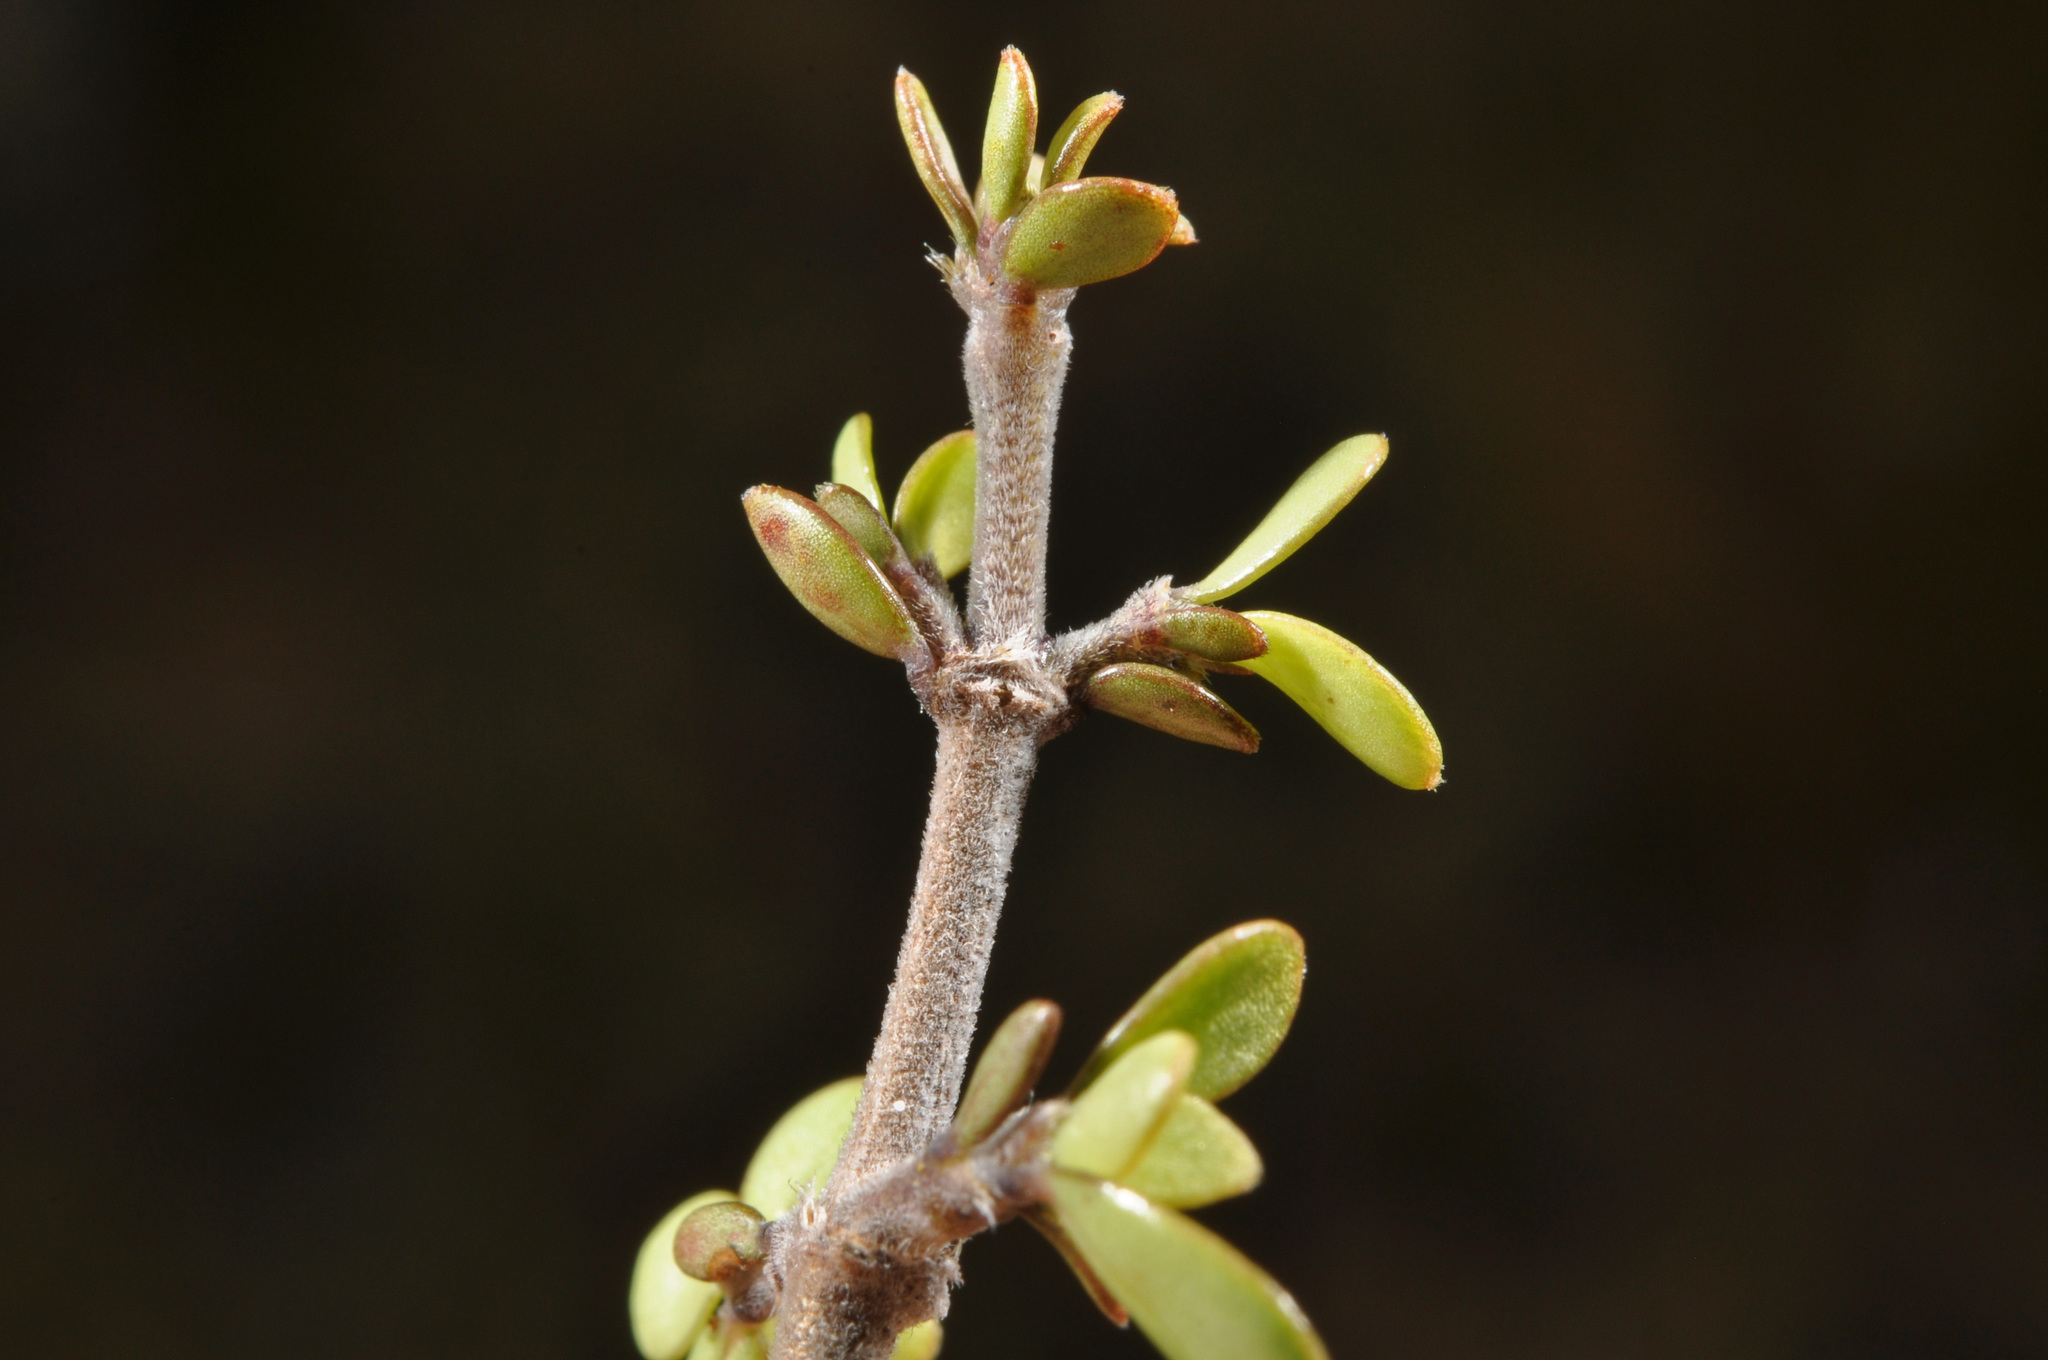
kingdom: Plantae
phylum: Tracheophyta
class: Magnoliopsida
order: Gentianales
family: Rubiaceae
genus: Coprosma
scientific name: Coprosma dumosa
